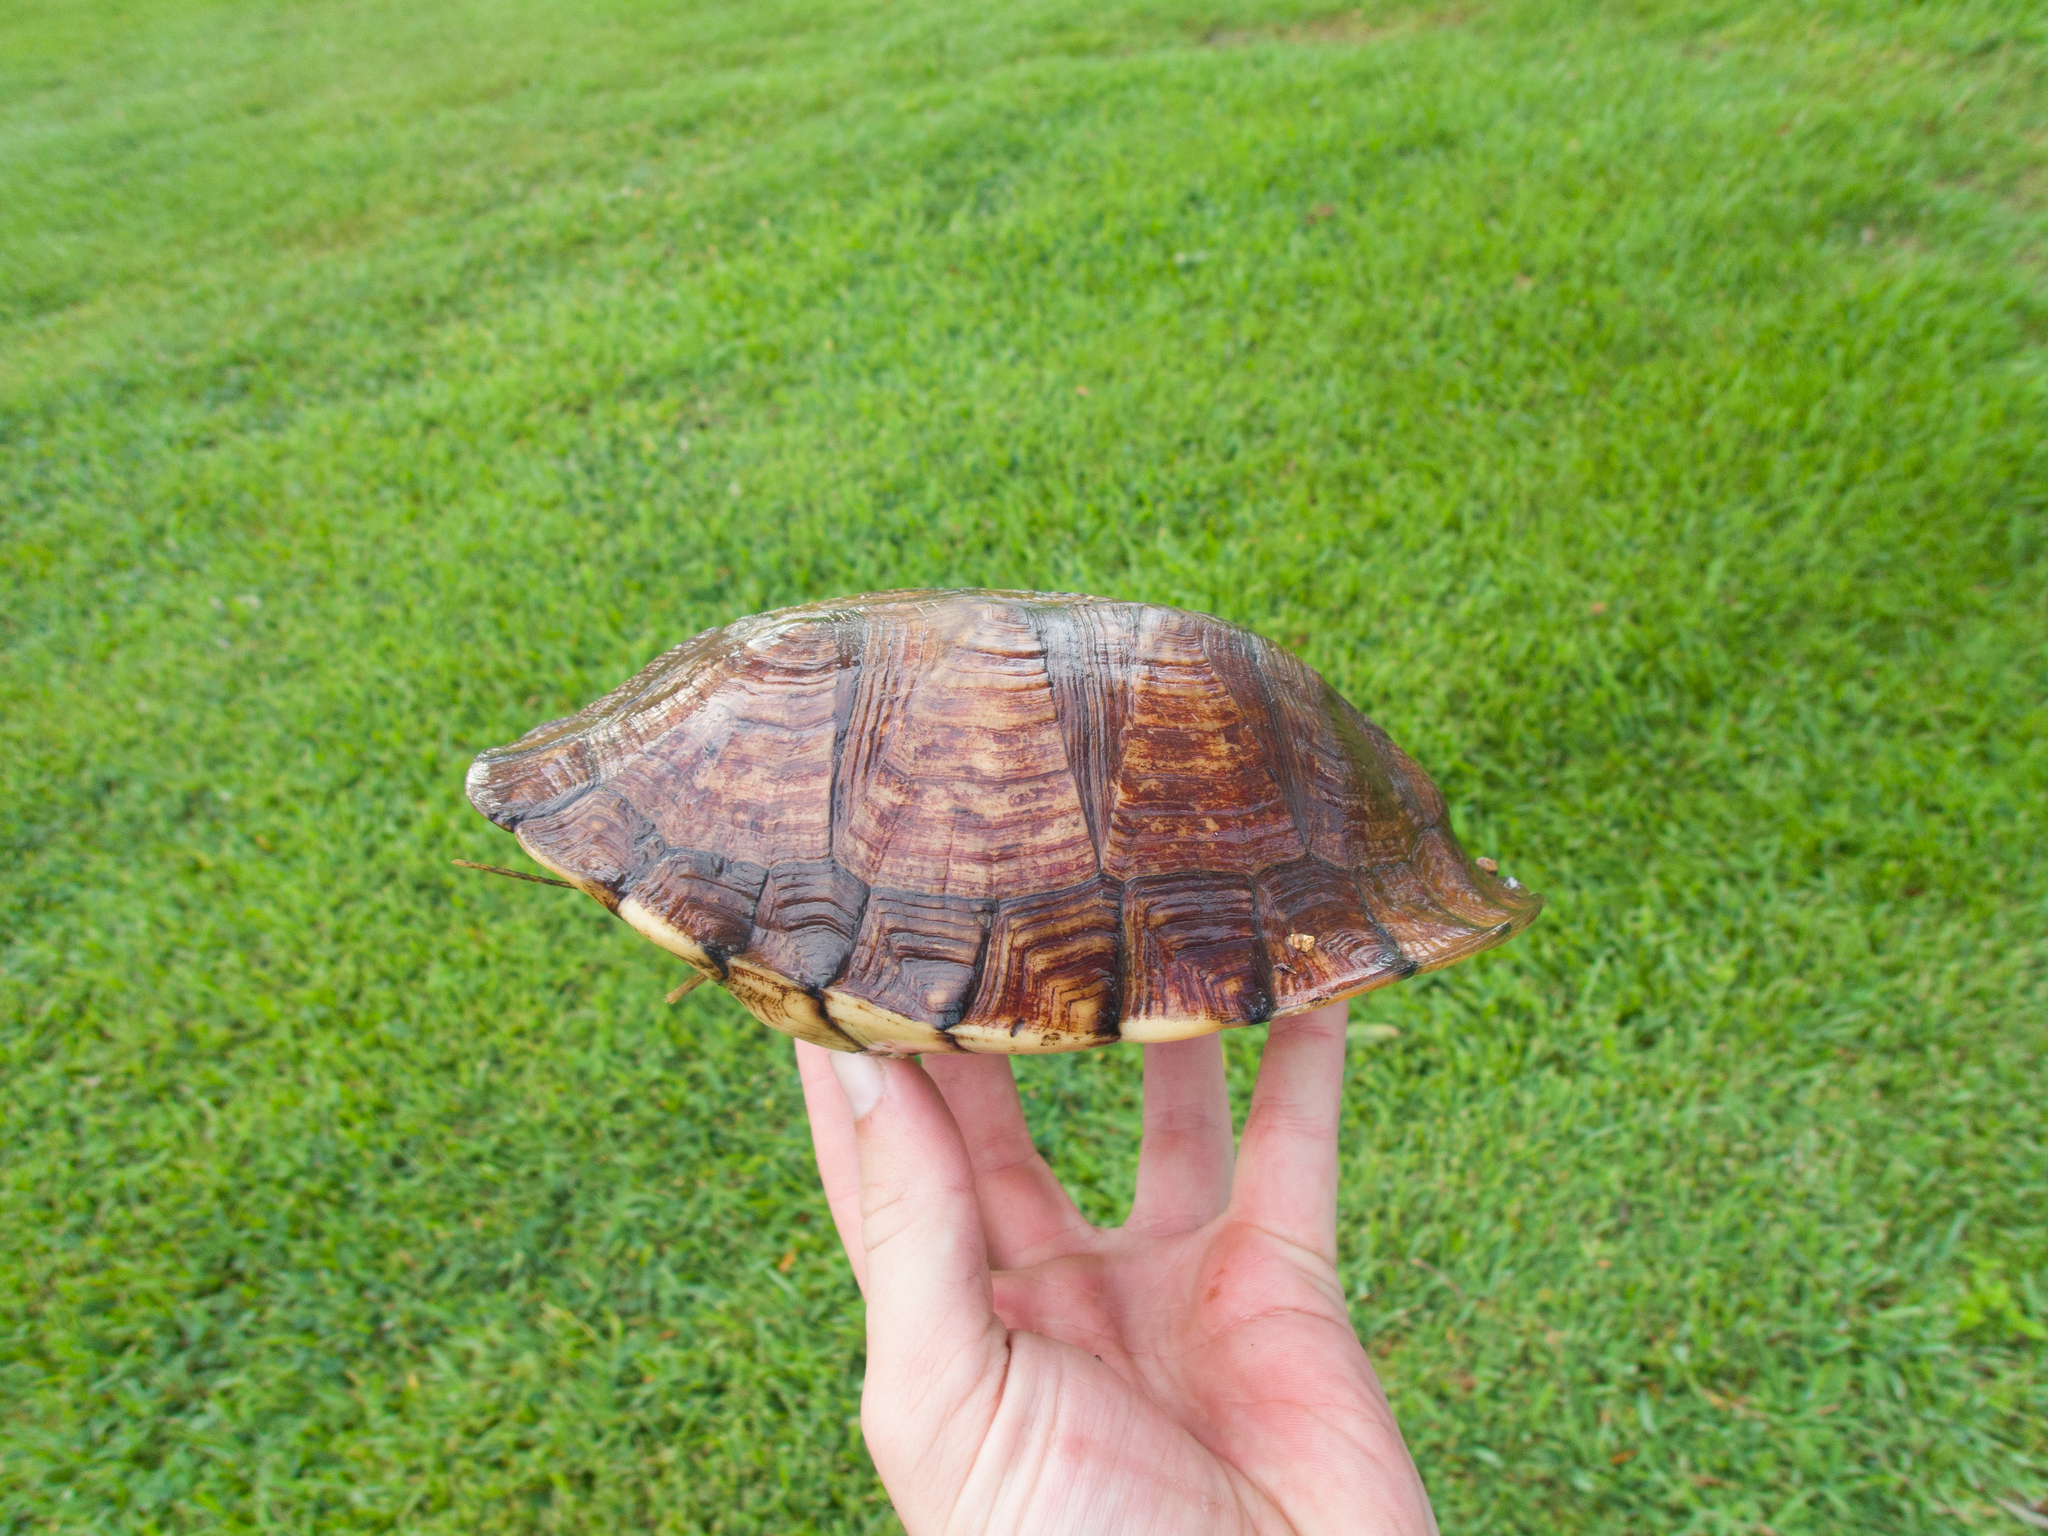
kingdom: Animalia
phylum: Chordata
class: Testudines
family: Emydidae
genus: Terrapene
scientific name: Terrapene carolina
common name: Common box turtle
